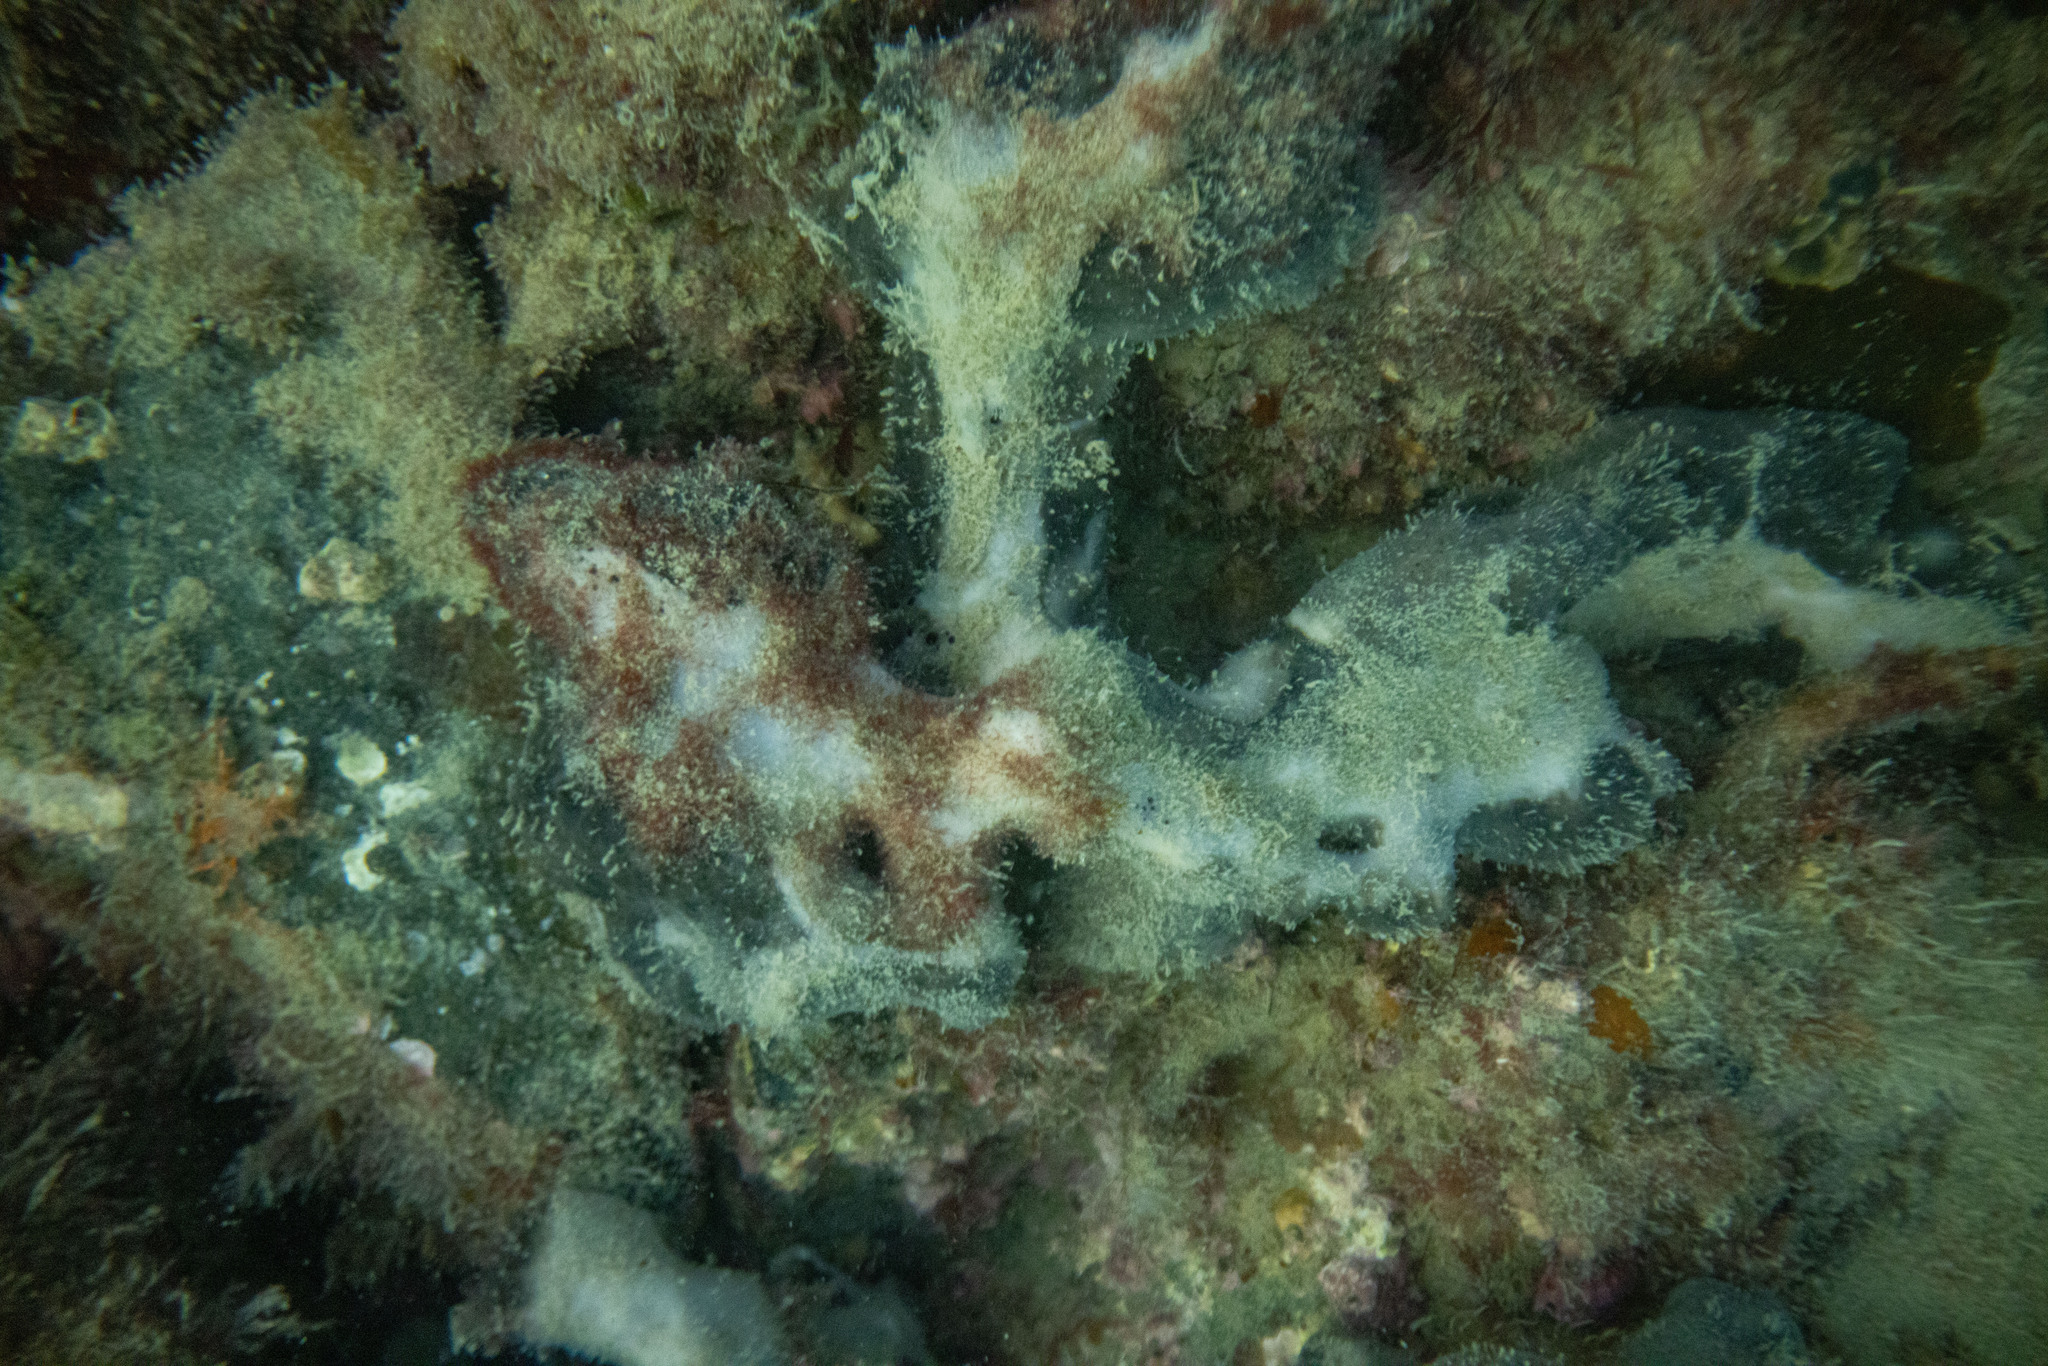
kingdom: Animalia
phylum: Porifera
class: Demospongiae
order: Tetractinellida
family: Ancorinidae
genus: Ecionemia
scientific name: Ecionemia alata
